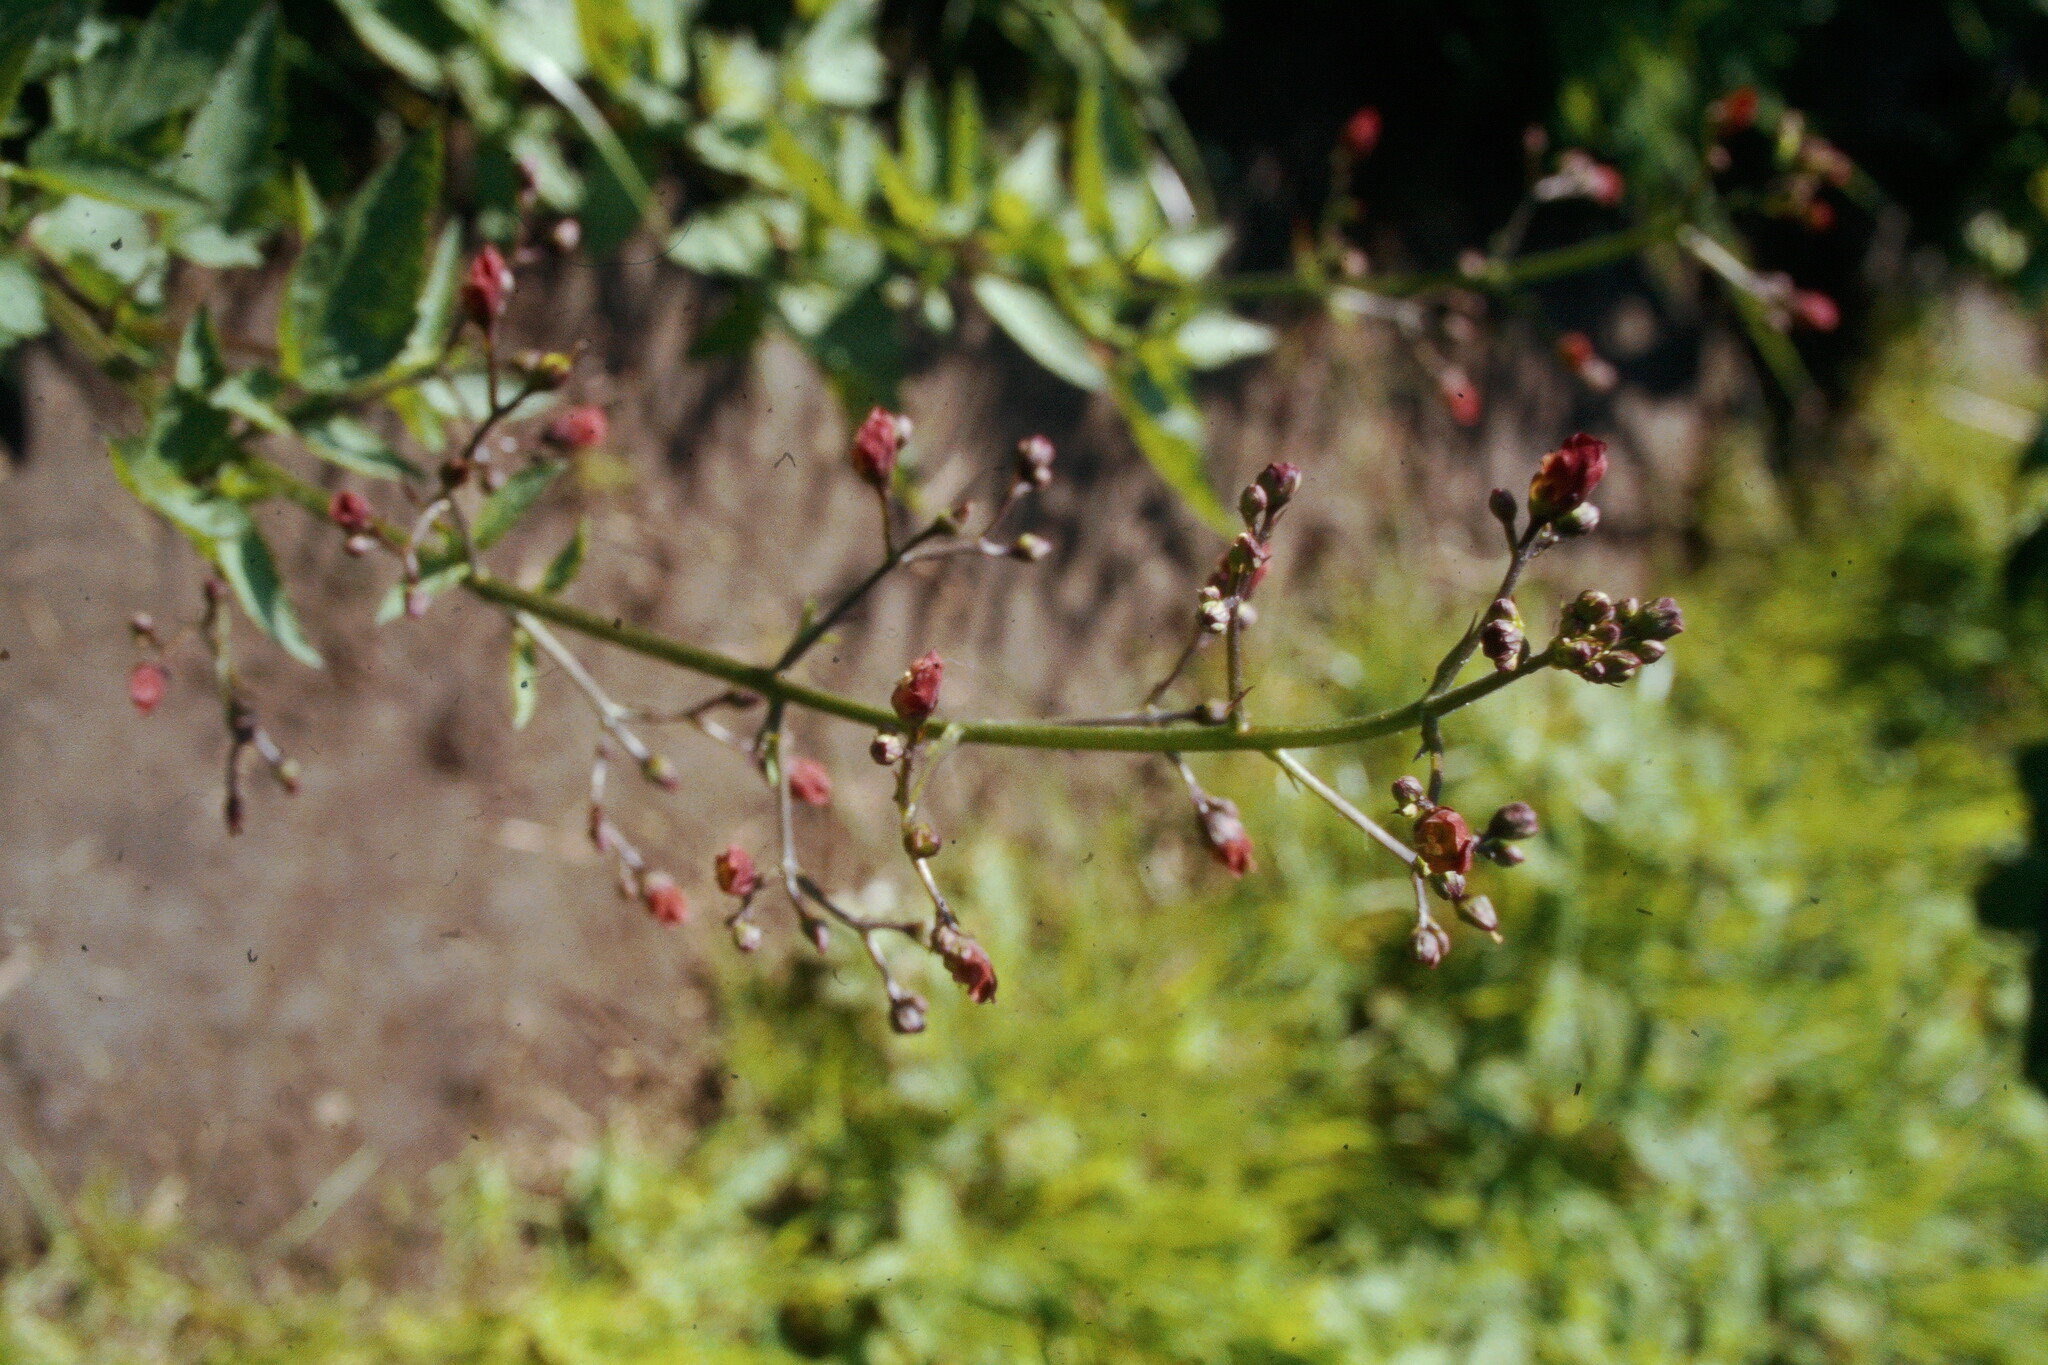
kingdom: Plantae
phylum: Tracheophyta
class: Magnoliopsida
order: Lamiales
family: Scrophulariaceae
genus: Scrophularia
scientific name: Scrophularia californica
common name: California figwort
